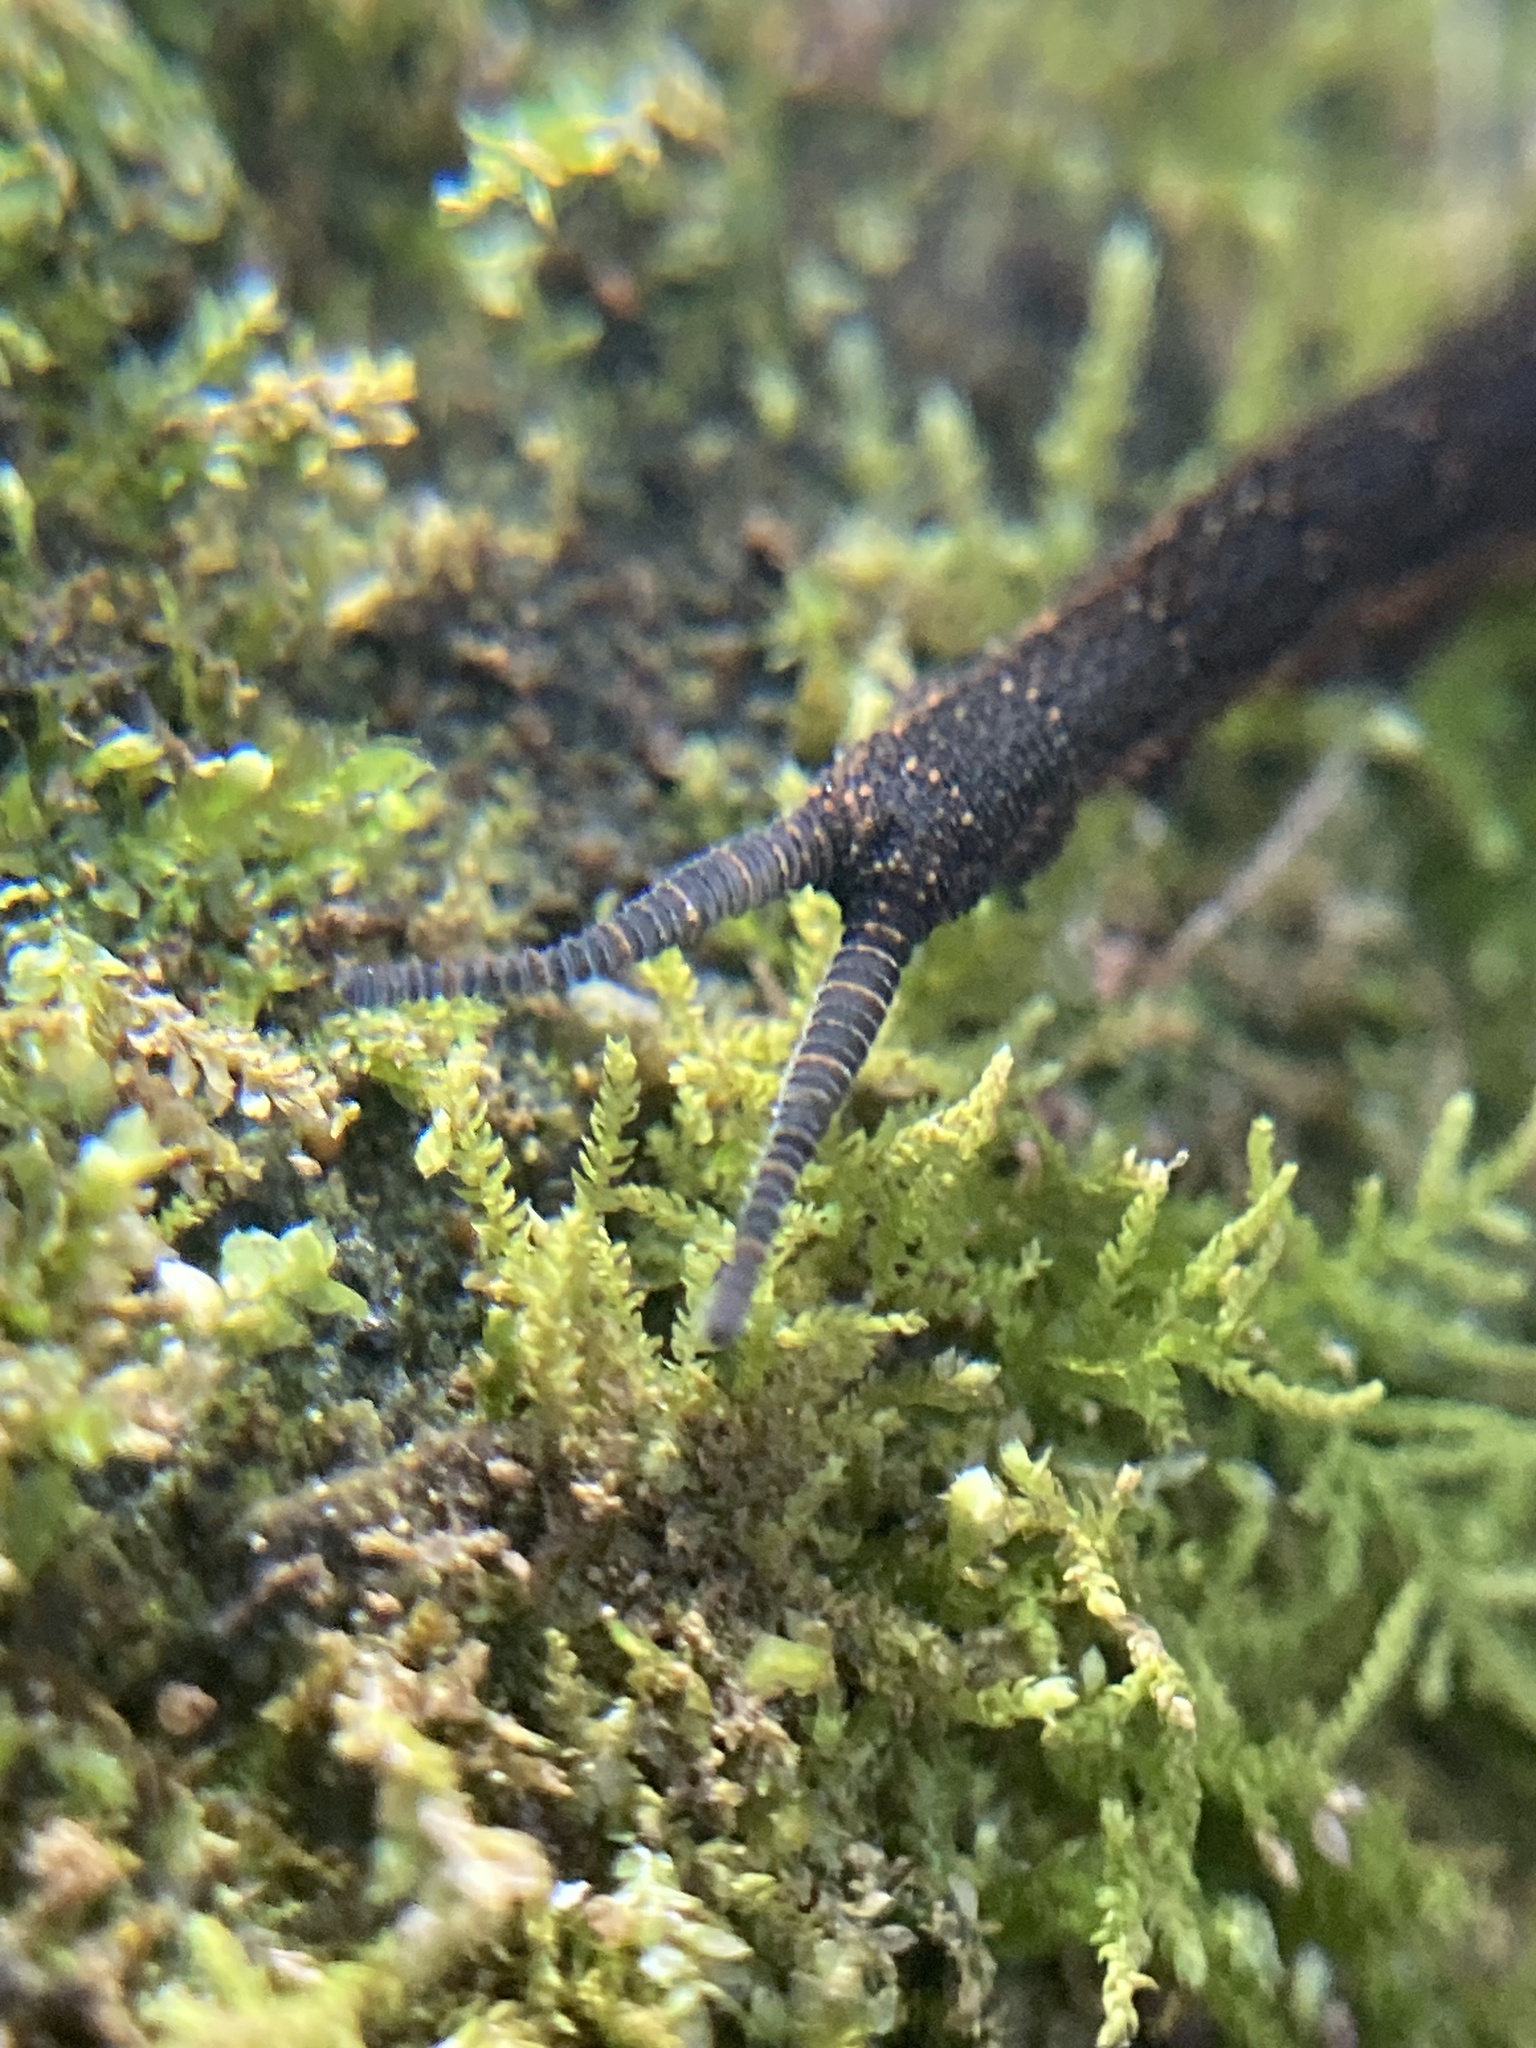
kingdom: Animalia
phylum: Onychophora
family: Peripatopsidae
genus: Anoplokaros
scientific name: Anoplokaros keerensis
